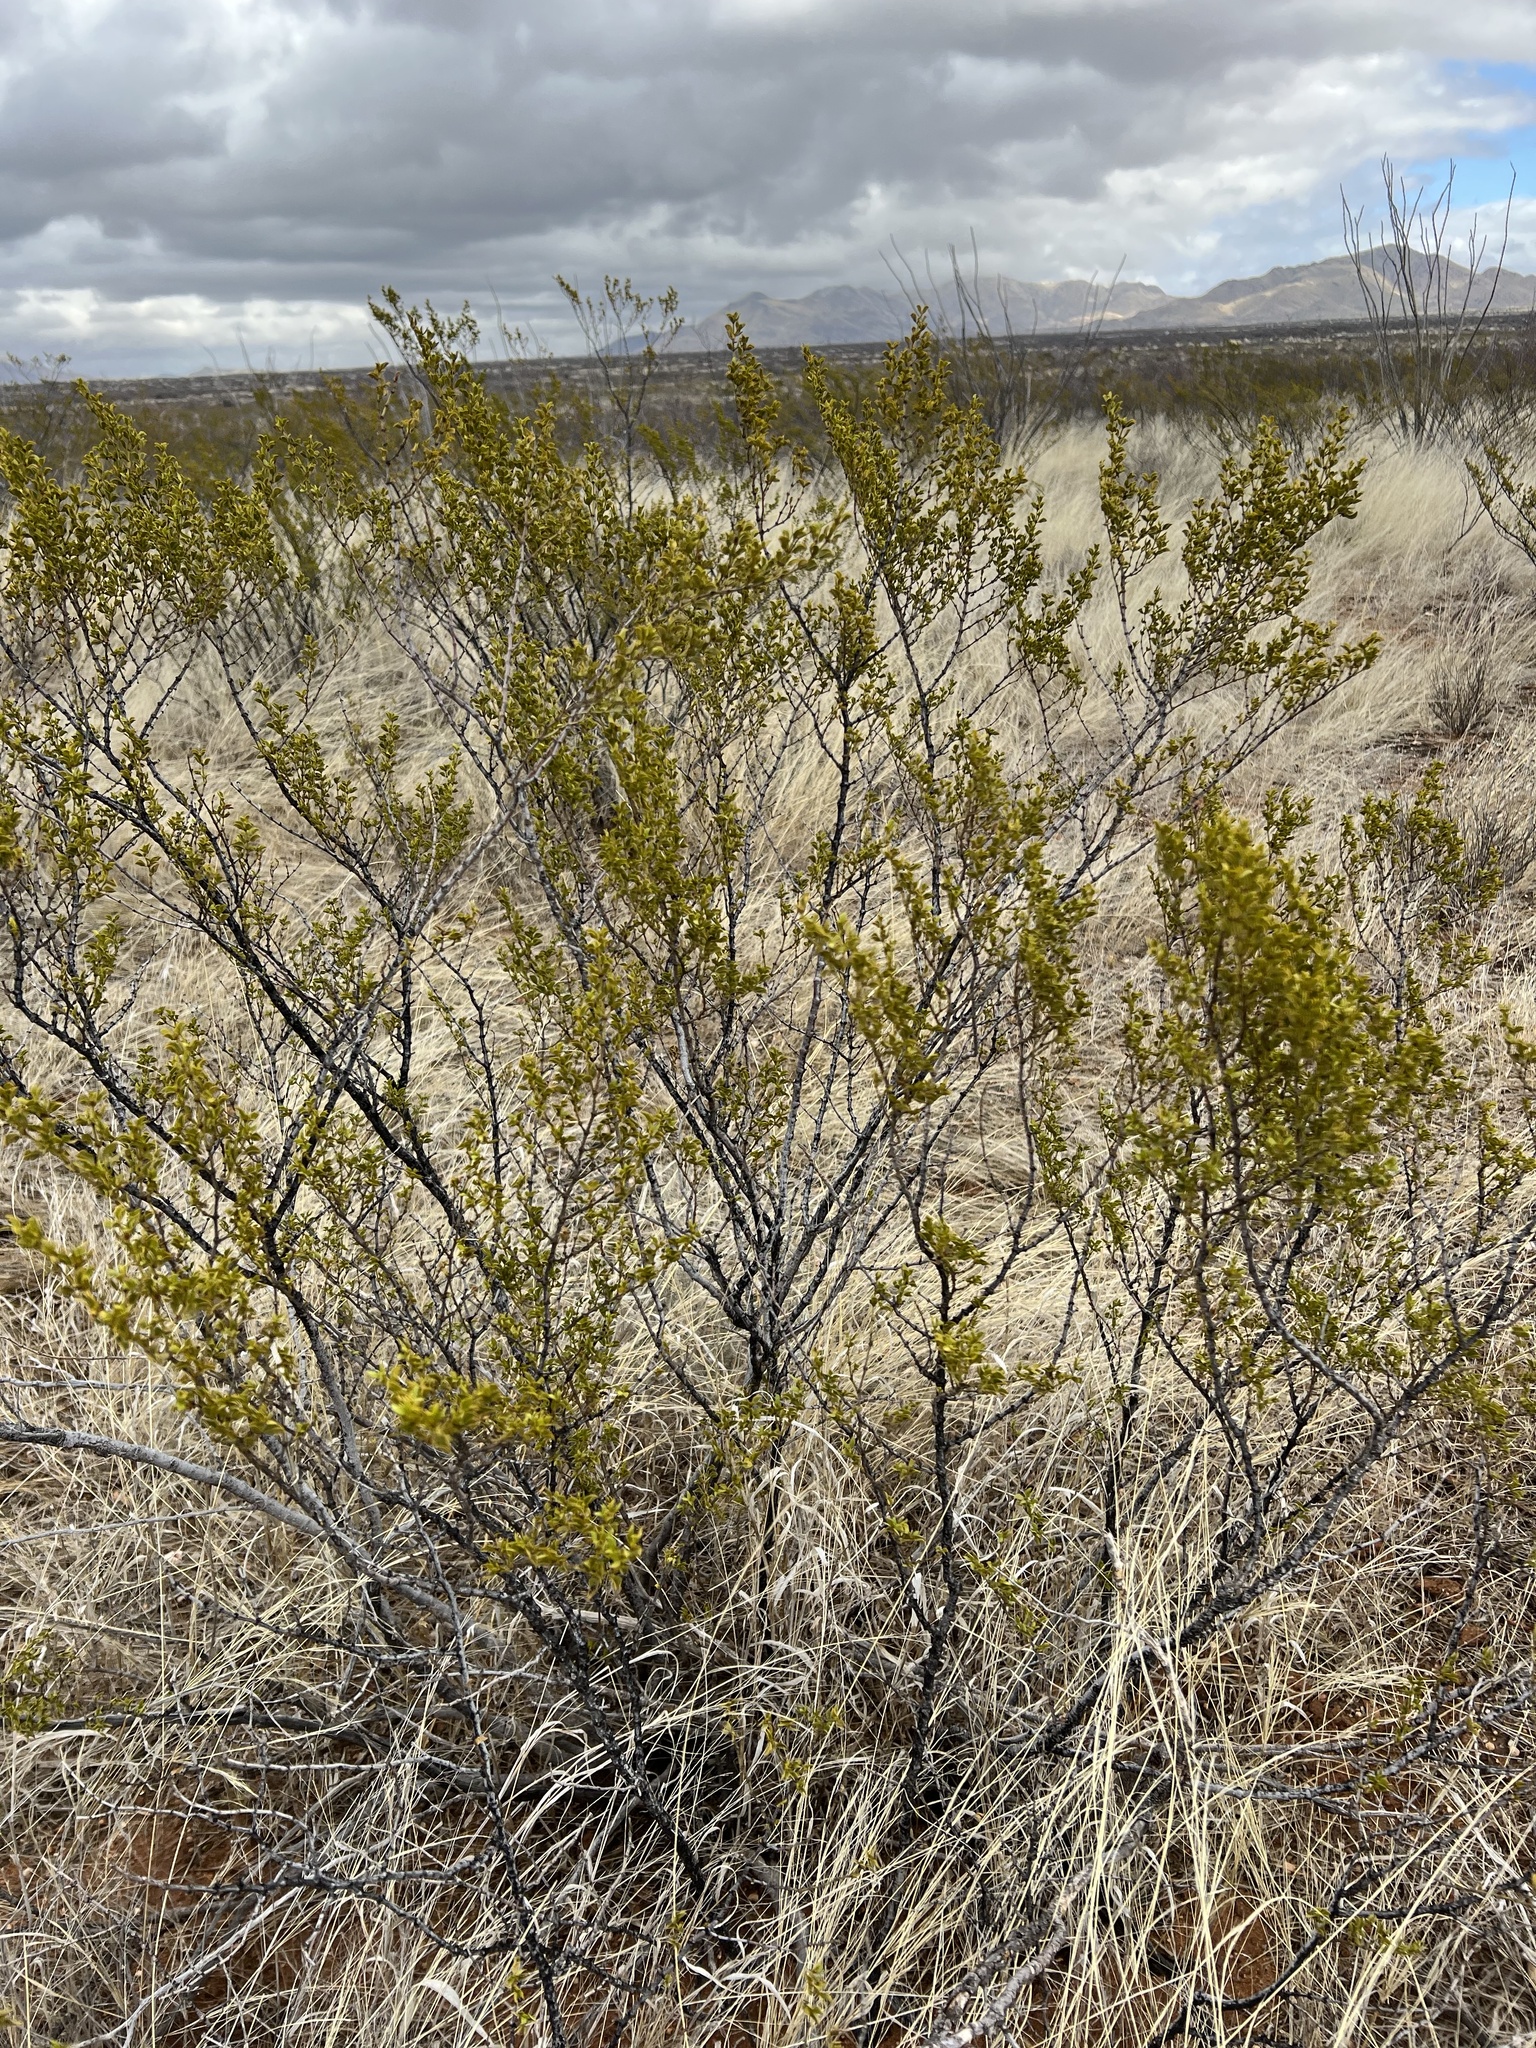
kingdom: Plantae
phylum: Tracheophyta
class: Magnoliopsida
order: Zygophyllales
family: Zygophyllaceae
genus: Larrea
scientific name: Larrea tridentata
